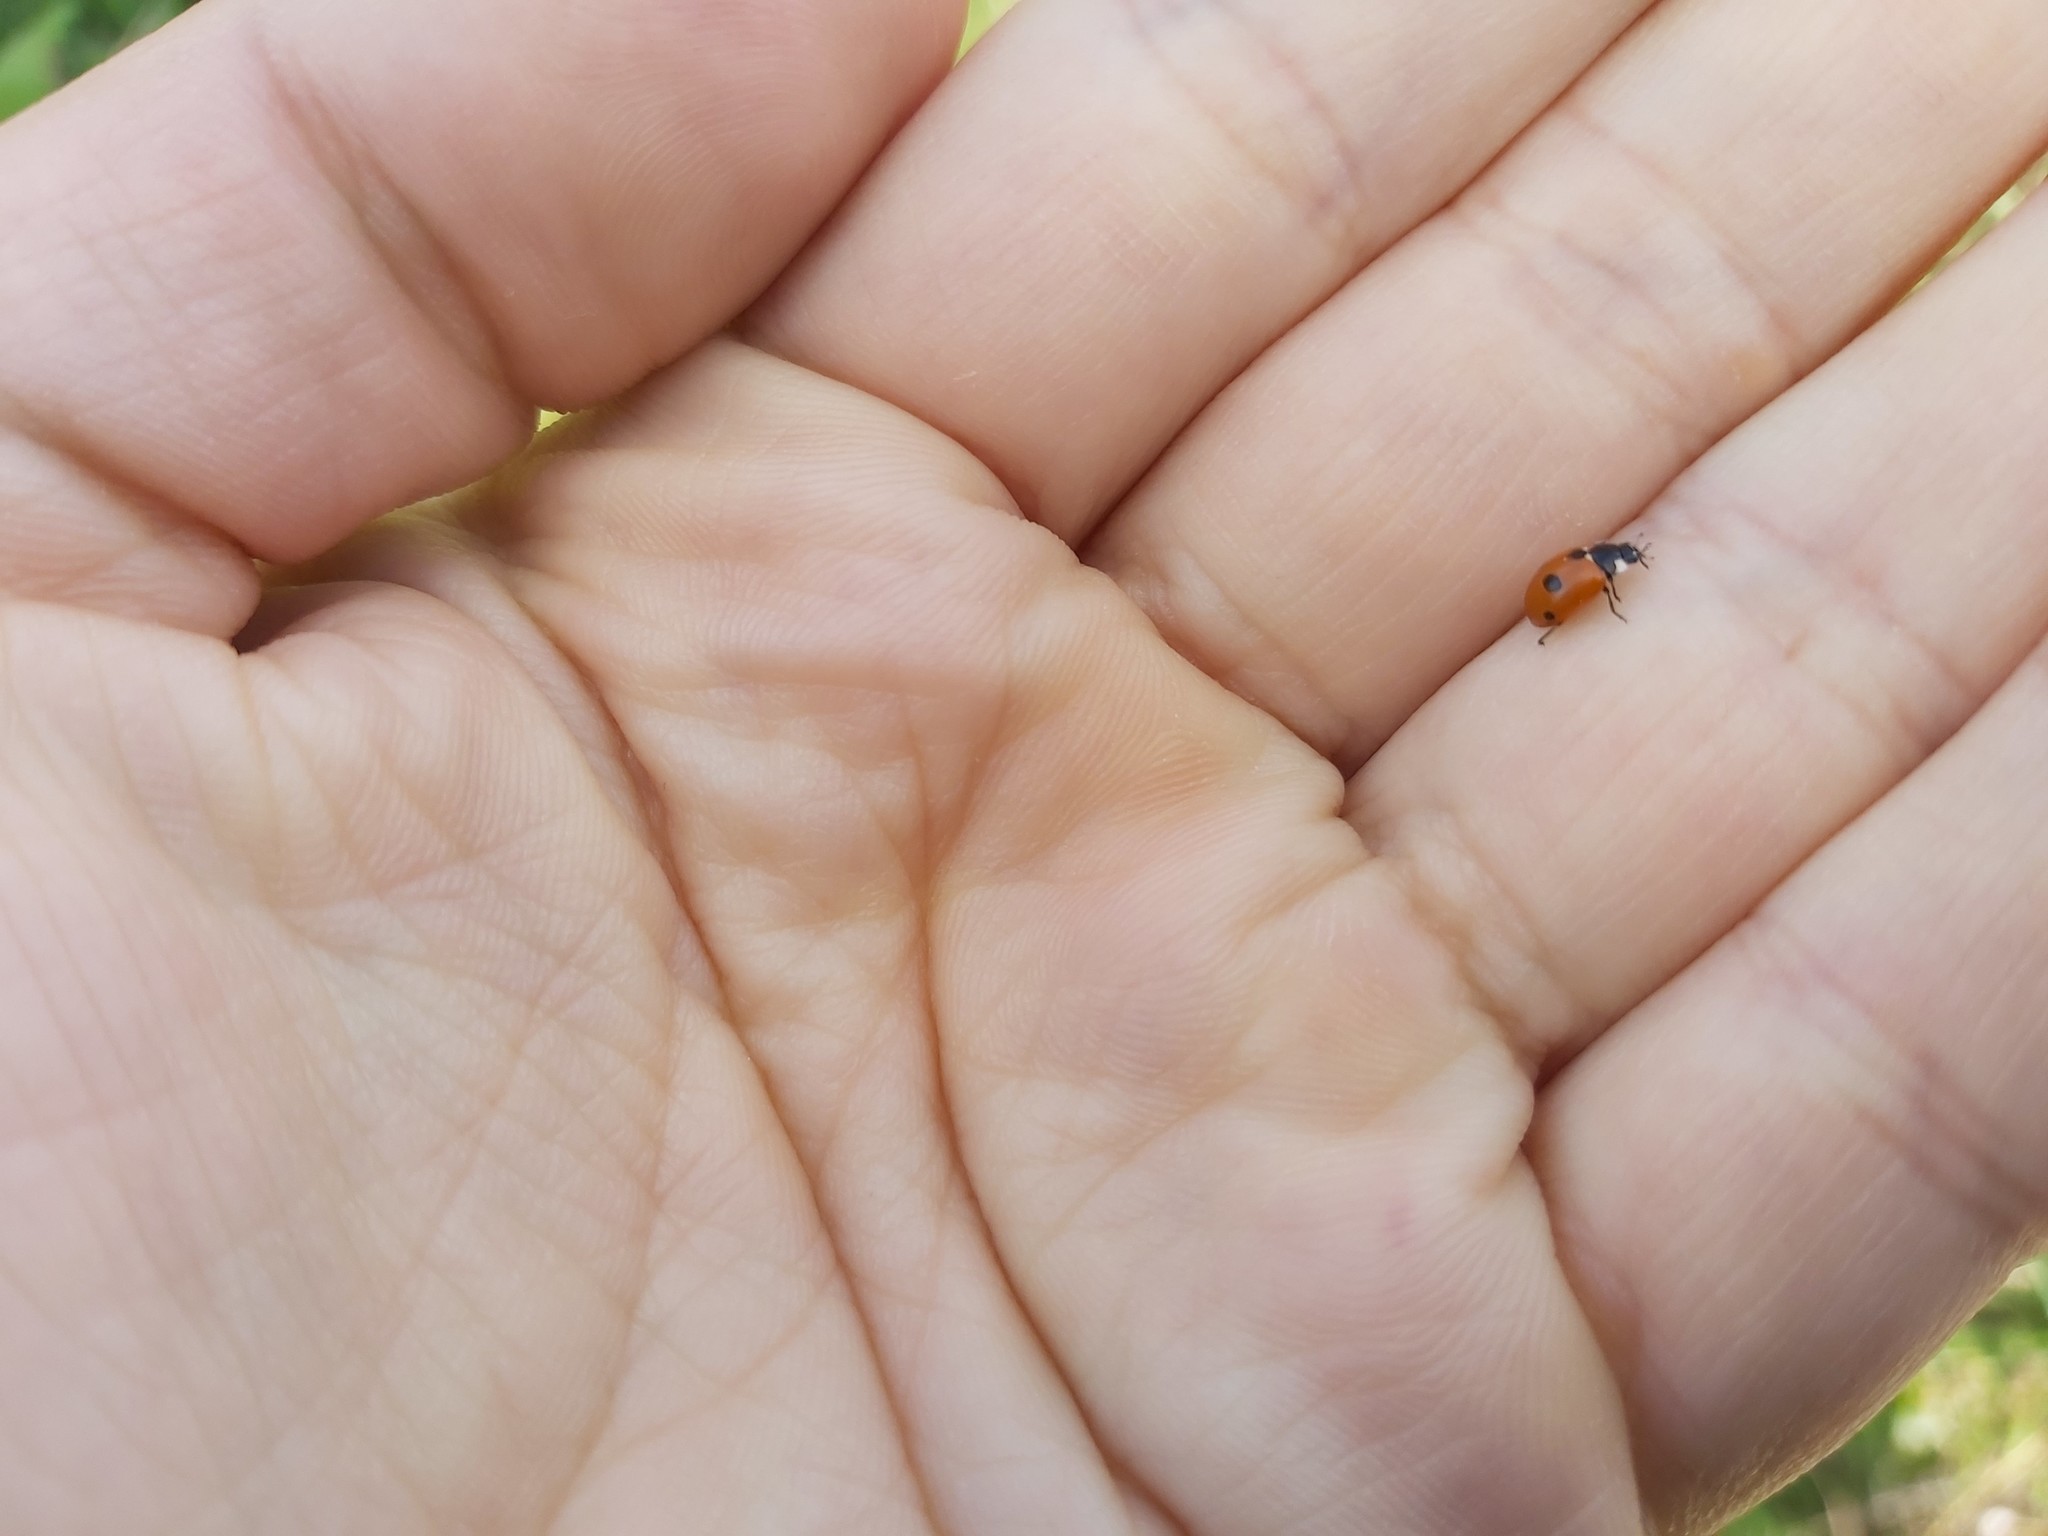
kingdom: Animalia
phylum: Arthropoda
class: Insecta
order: Coleoptera
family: Coccinellidae
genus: Coccinella
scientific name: Coccinella quinquepunctata
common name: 5-spot ladybird
